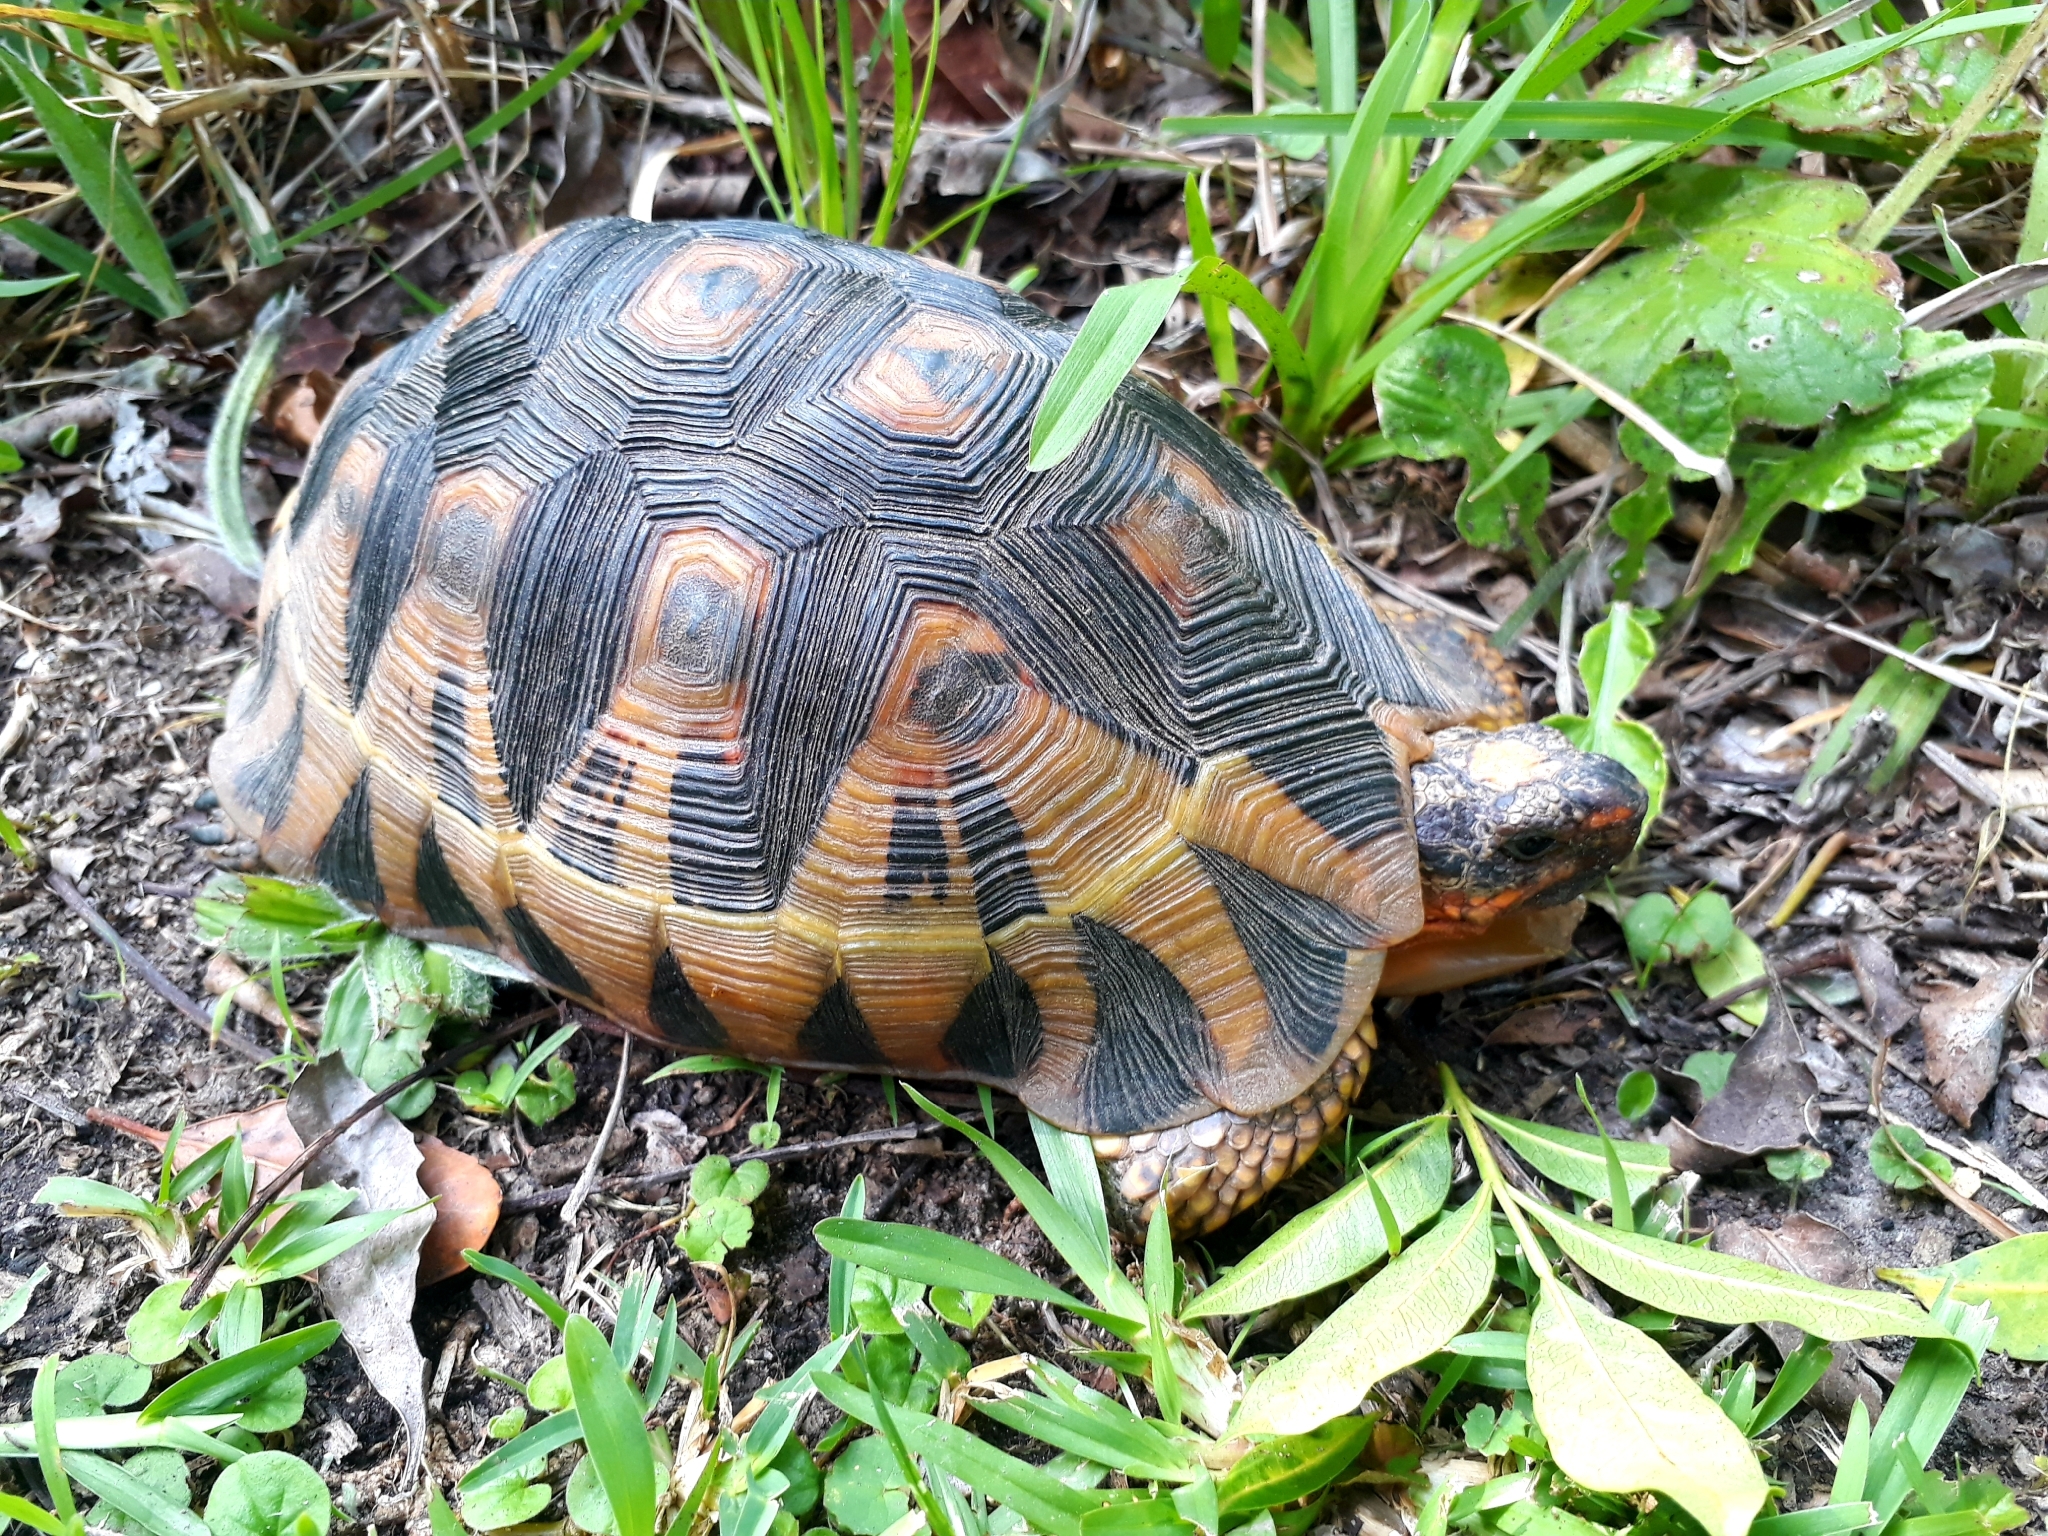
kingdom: Animalia
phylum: Chordata
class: Testudines
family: Testudinidae
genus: Chersina
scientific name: Chersina angulata
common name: South african bowsprit tortoise
